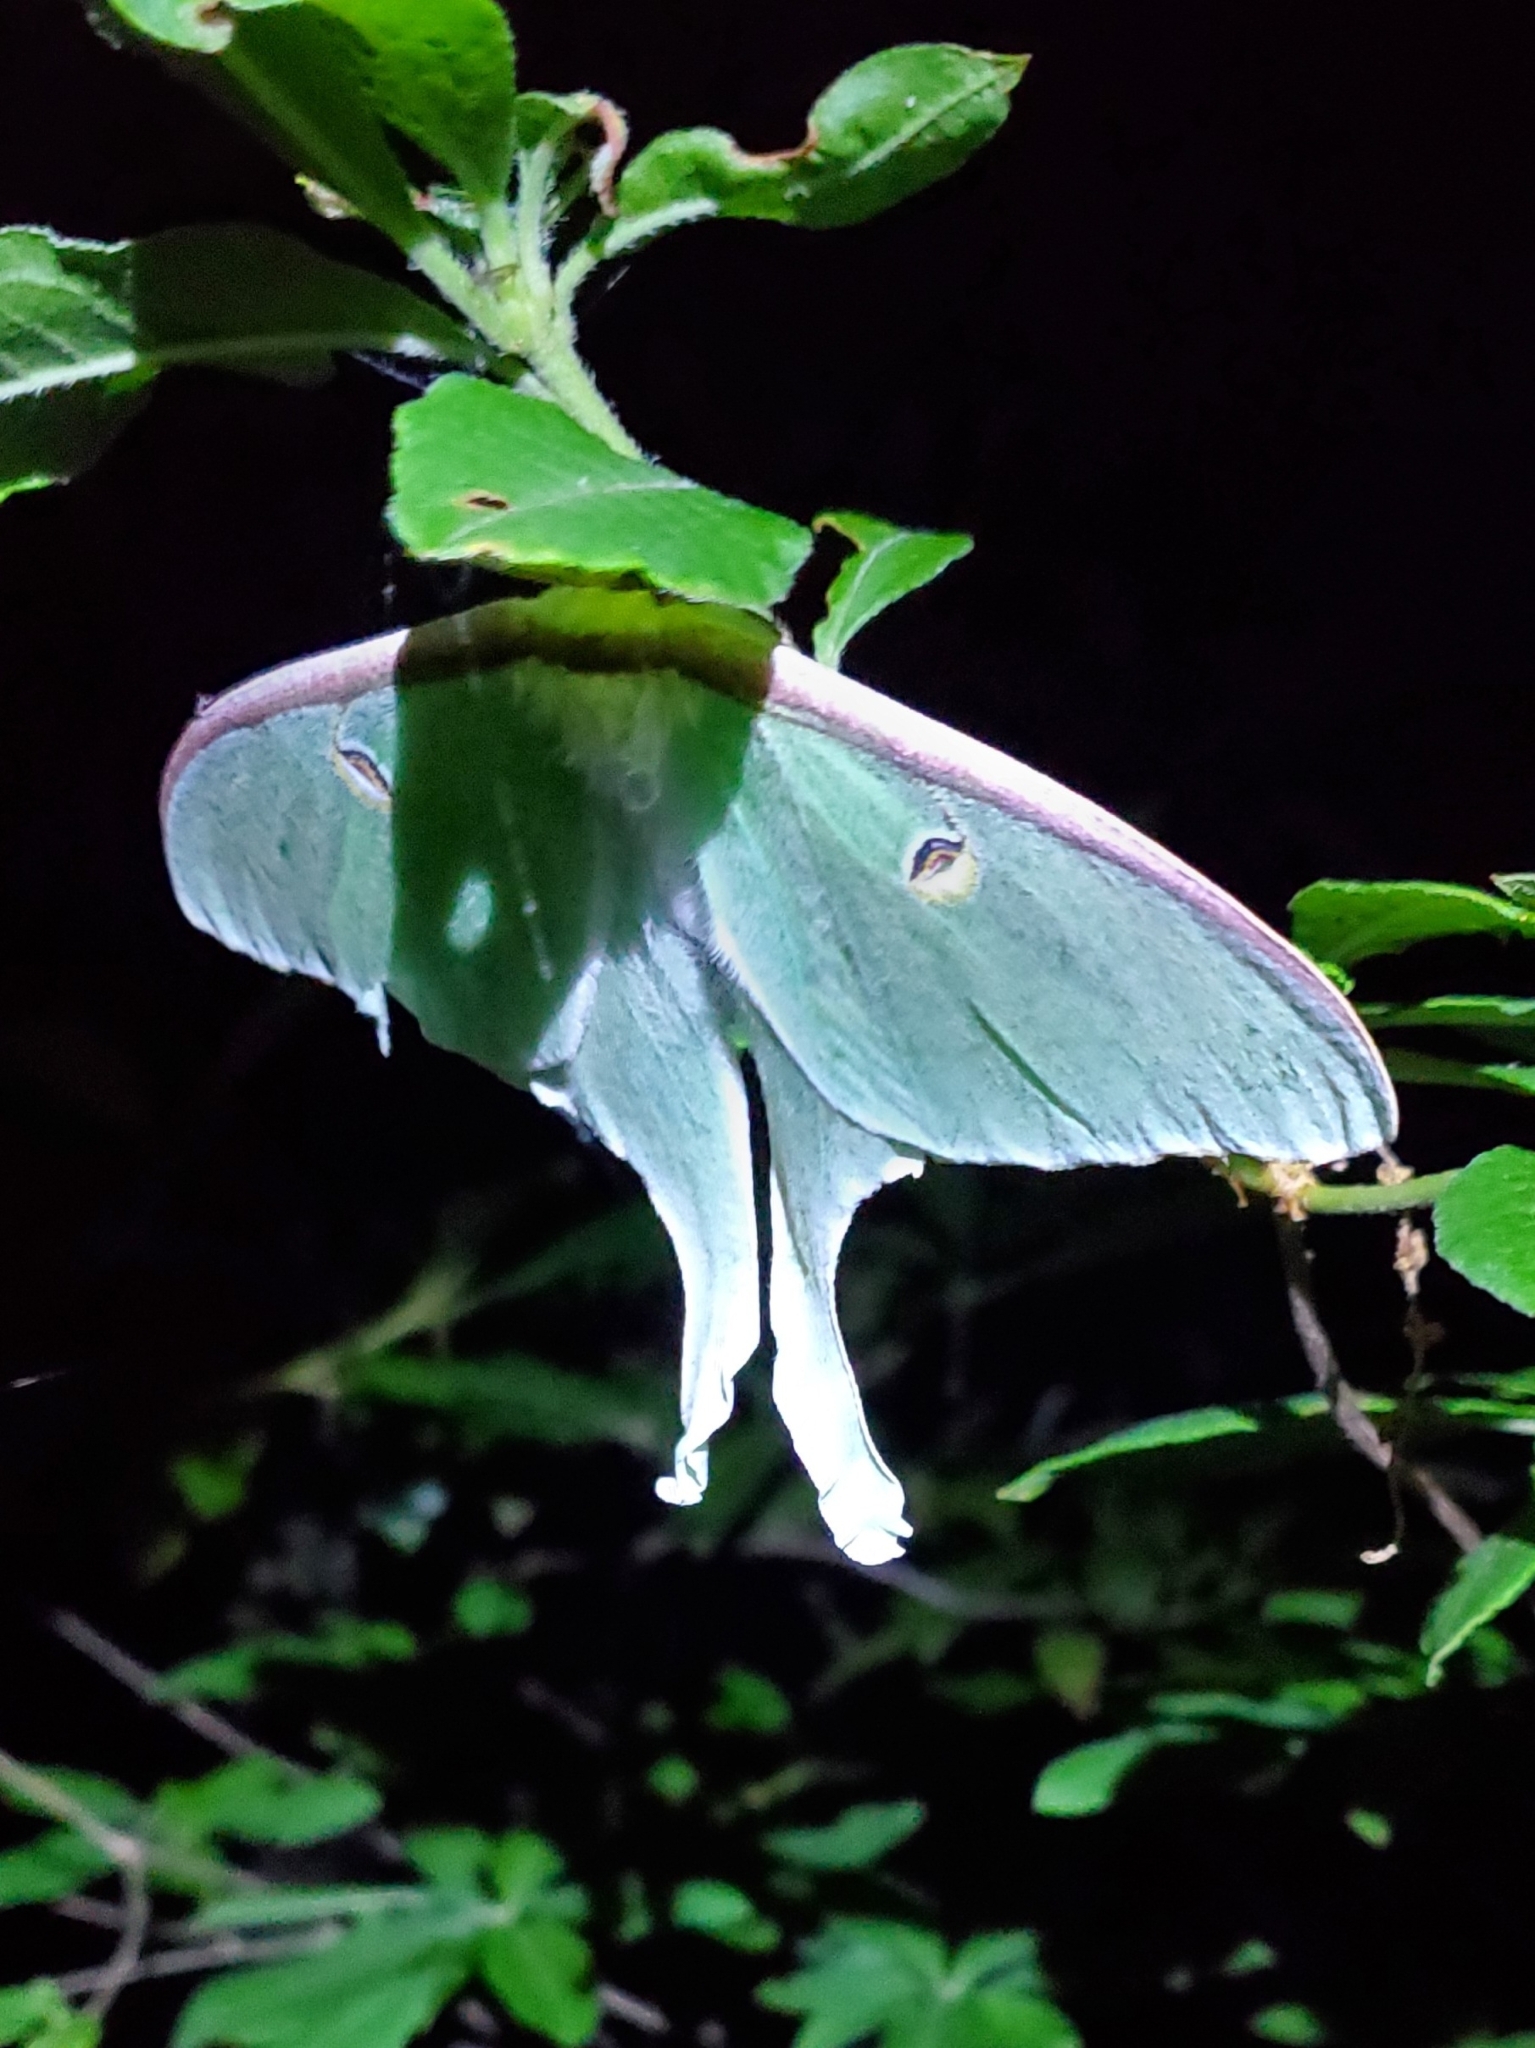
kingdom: Animalia
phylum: Arthropoda
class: Insecta
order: Lepidoptera
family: Saturniidae
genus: Actias
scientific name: Actias luna
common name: Luna moth
